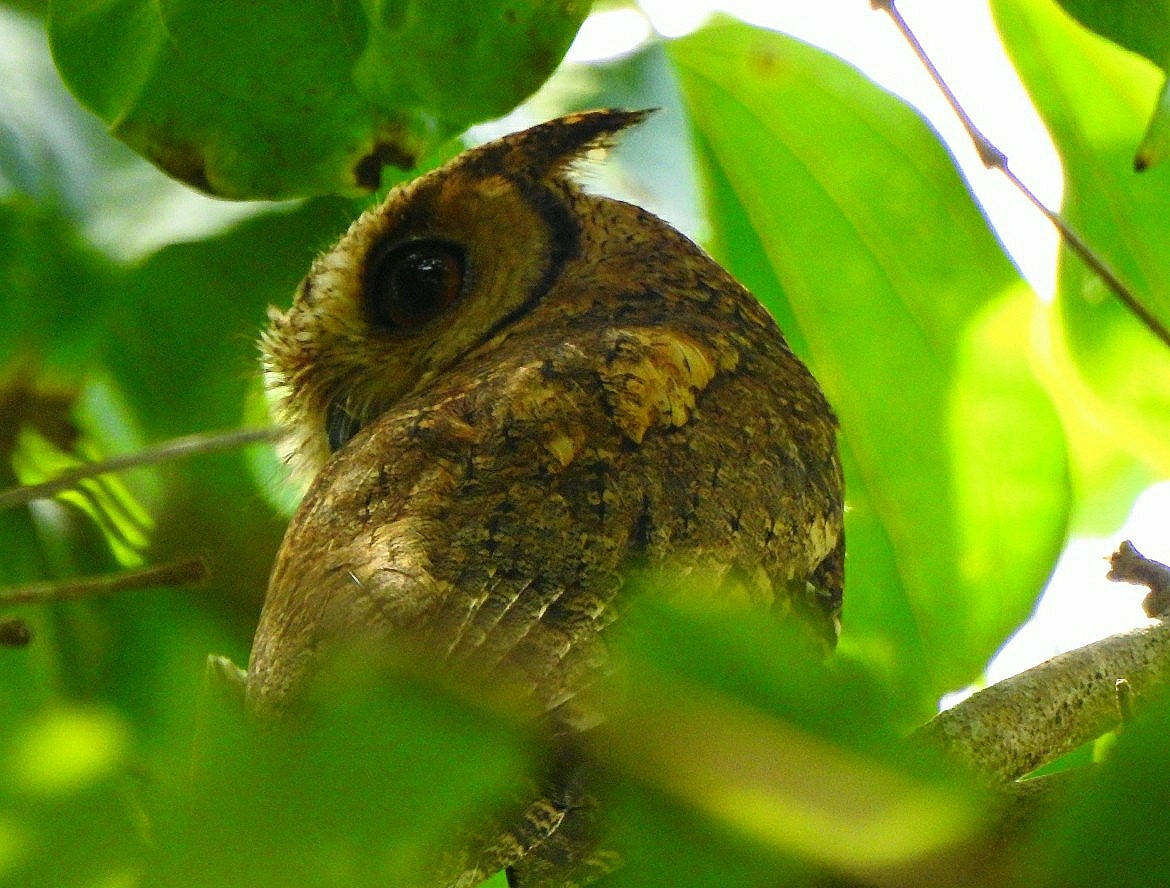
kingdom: Animalia
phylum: Chordata
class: Aves
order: Strigiformes
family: Strigidae
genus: Otus
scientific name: Otus bakkamoena
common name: Indian scops owl
